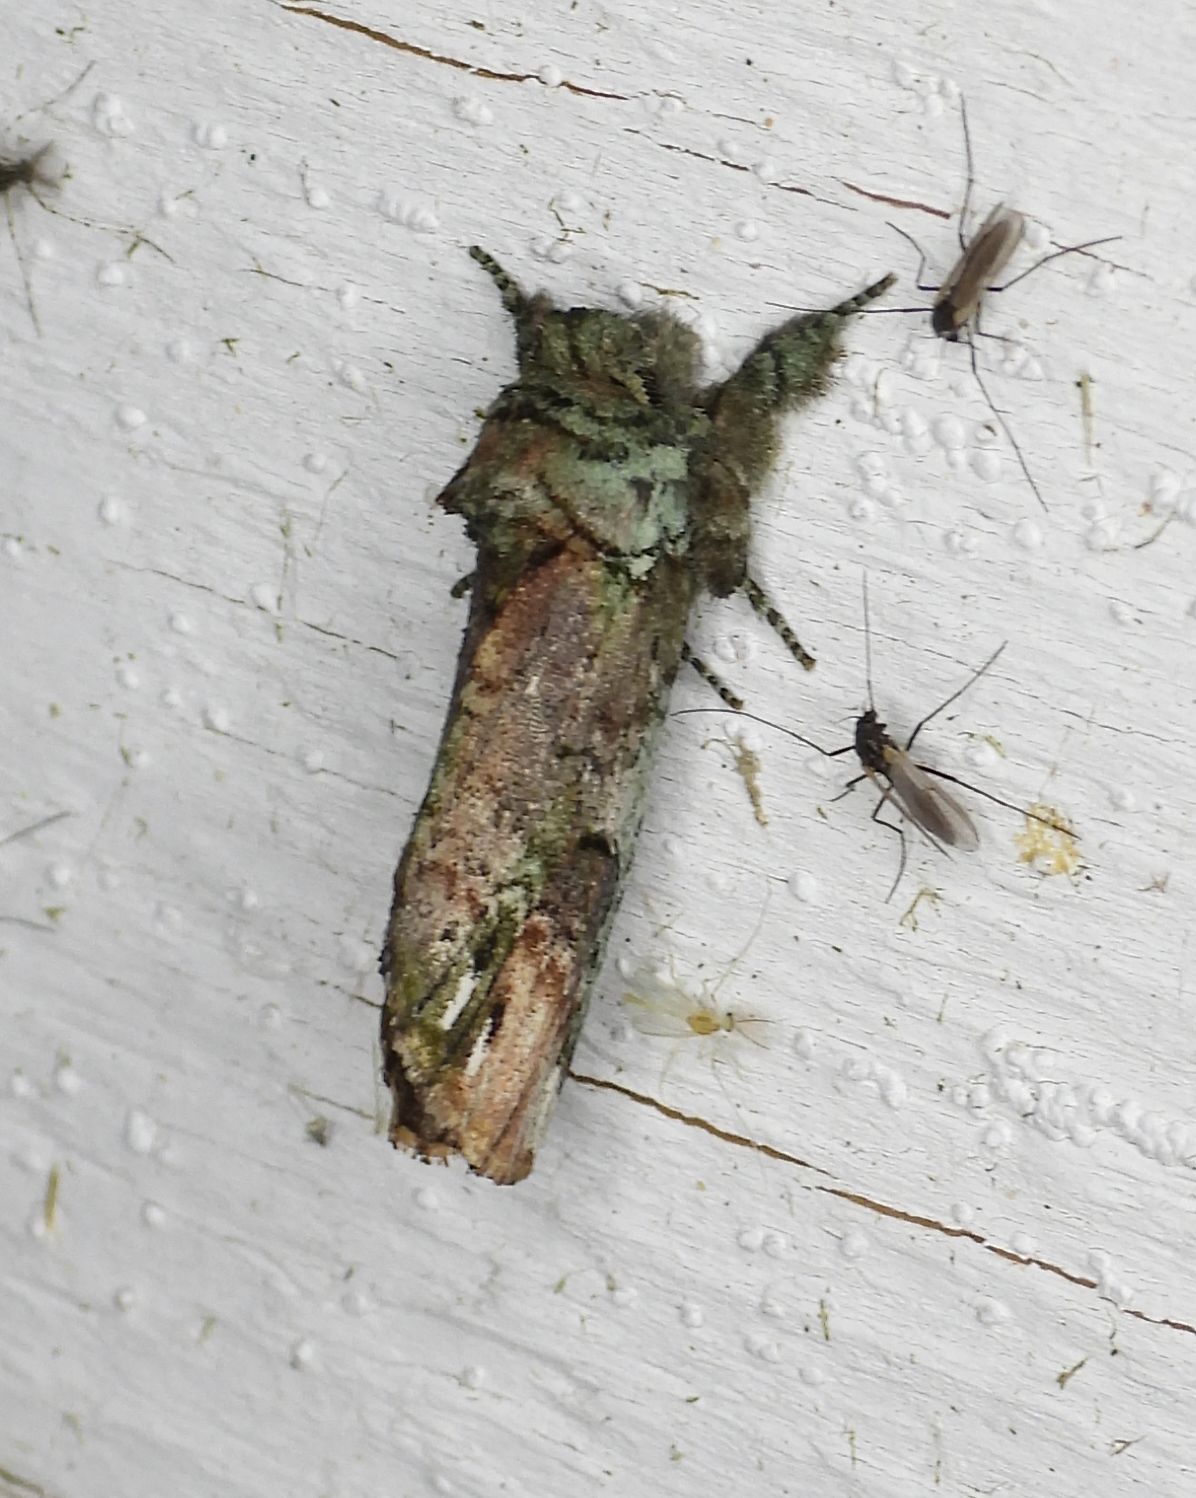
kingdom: Animalia
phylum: Arthropoda
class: Insecta
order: Lepidoptera
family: Notodontidae
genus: Schizura
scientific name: Schizura
